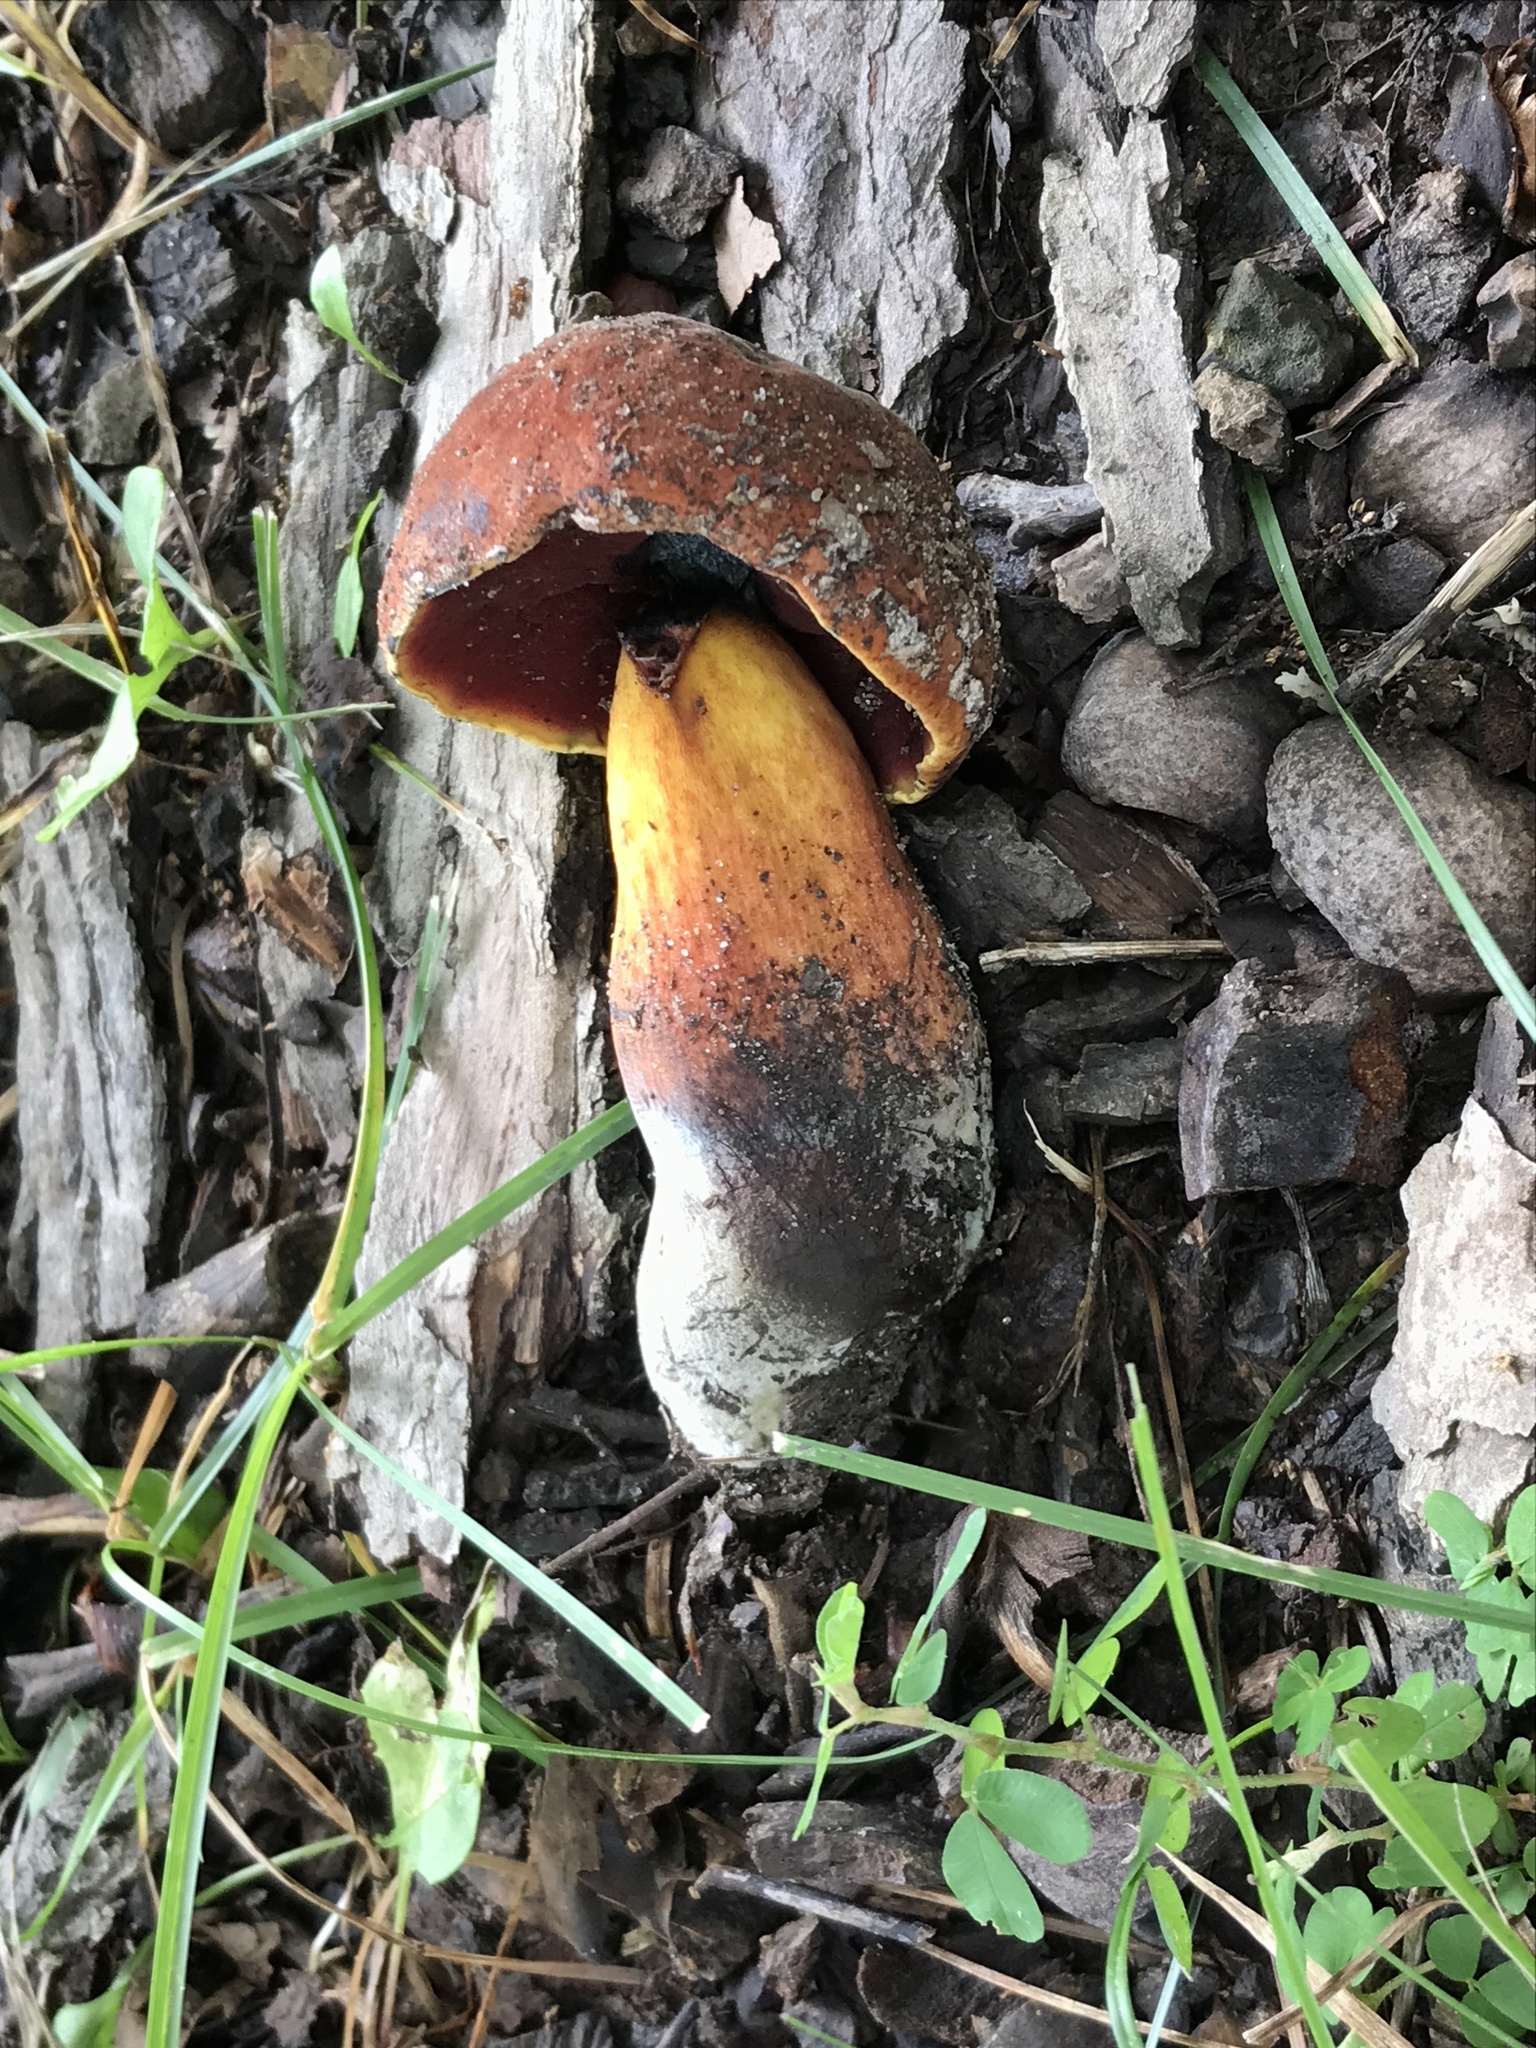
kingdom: Fungi
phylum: Basidiomycota
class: Agaricomycetes
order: Boletales
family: Boletaceae
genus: Boletus
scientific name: Boletus subvelutipes
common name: Red-mouth bolete
